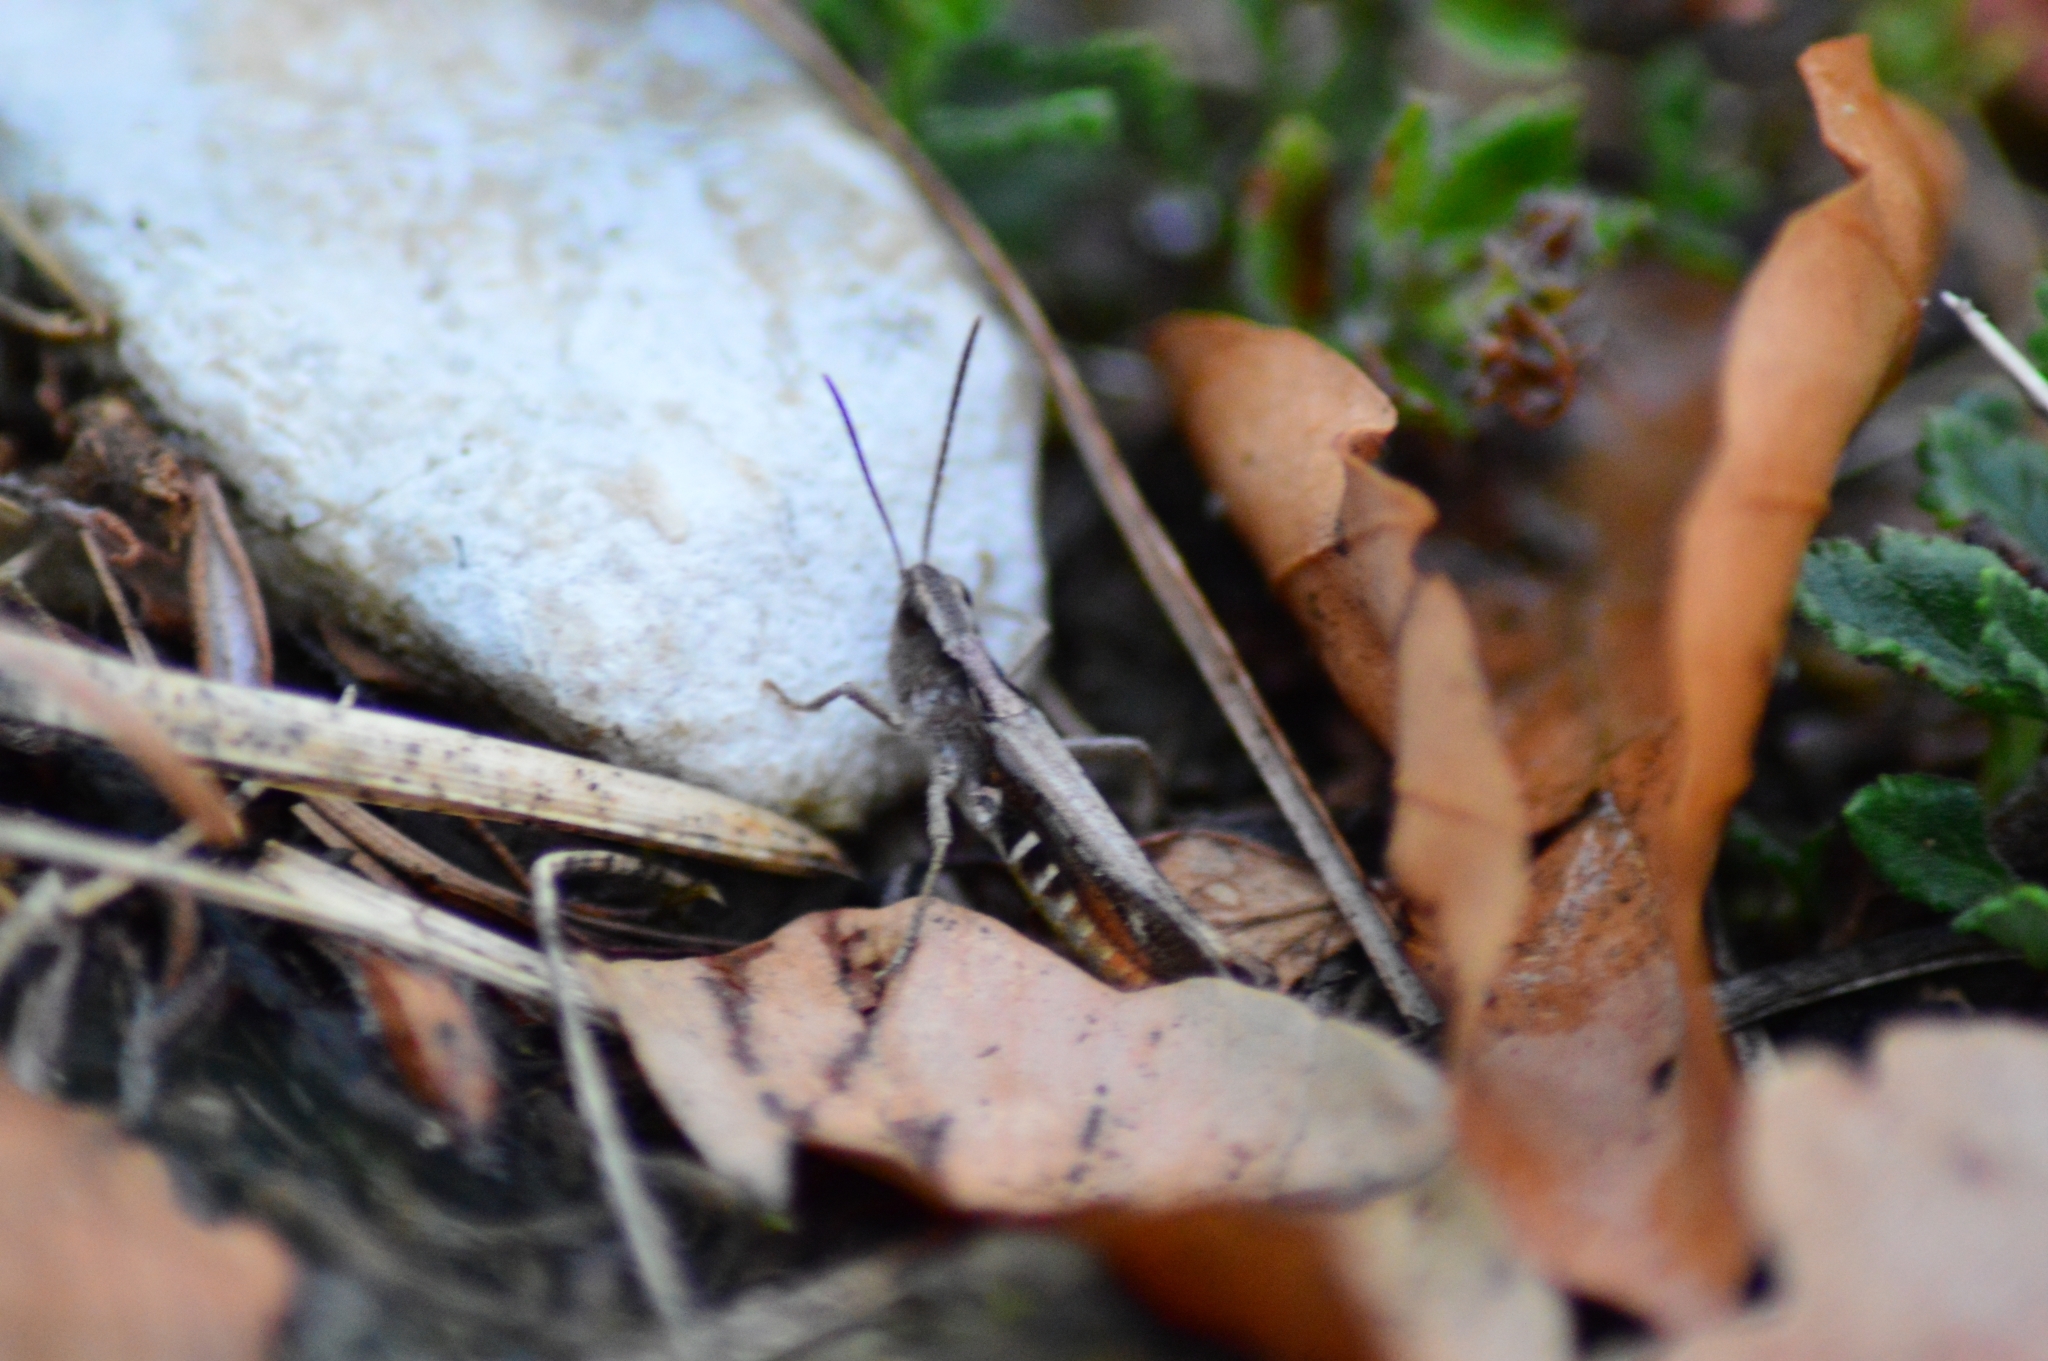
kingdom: Animalia
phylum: Arthropoda
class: Insecta
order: Orthoptera
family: Acrididae
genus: Chorthippus
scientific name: Chorthippus vagans
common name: Heath grasshopper
